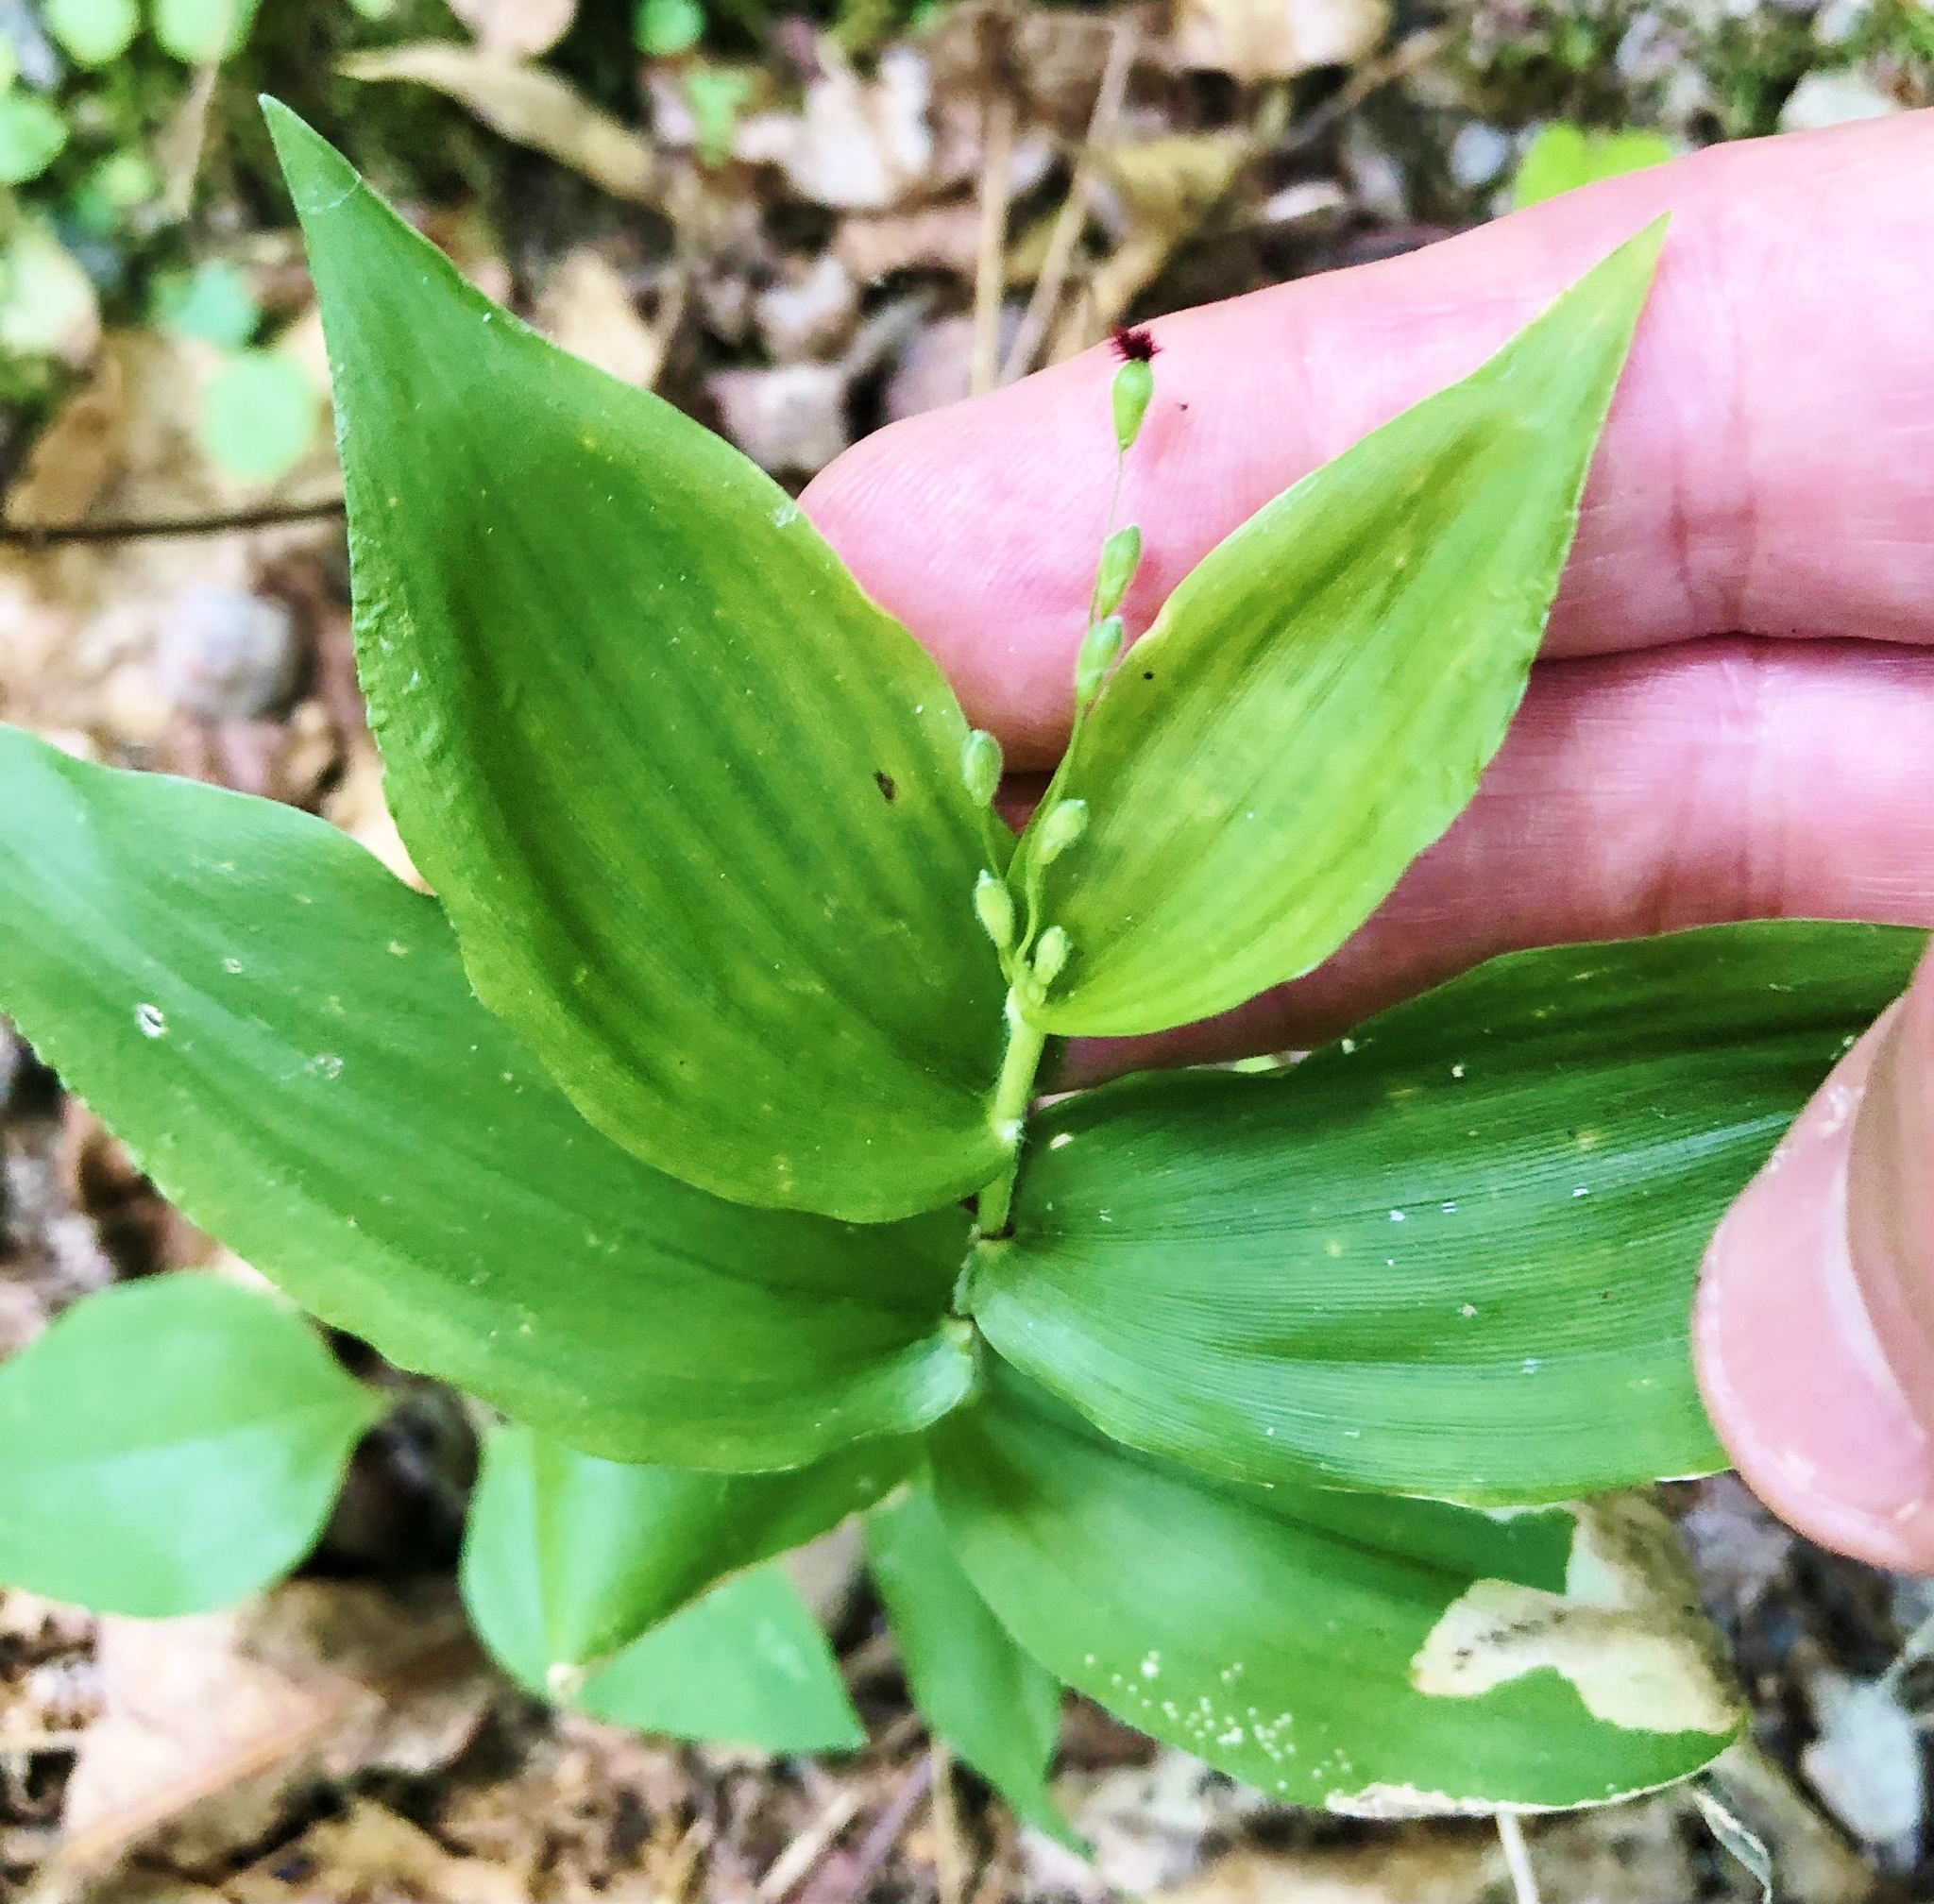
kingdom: Plantae
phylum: Tracheophyta
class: Liliopsida
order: Poales
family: Poaceae
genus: Dichanthelium
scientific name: Dichanthelium boscii
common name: Bosc's panic grass
